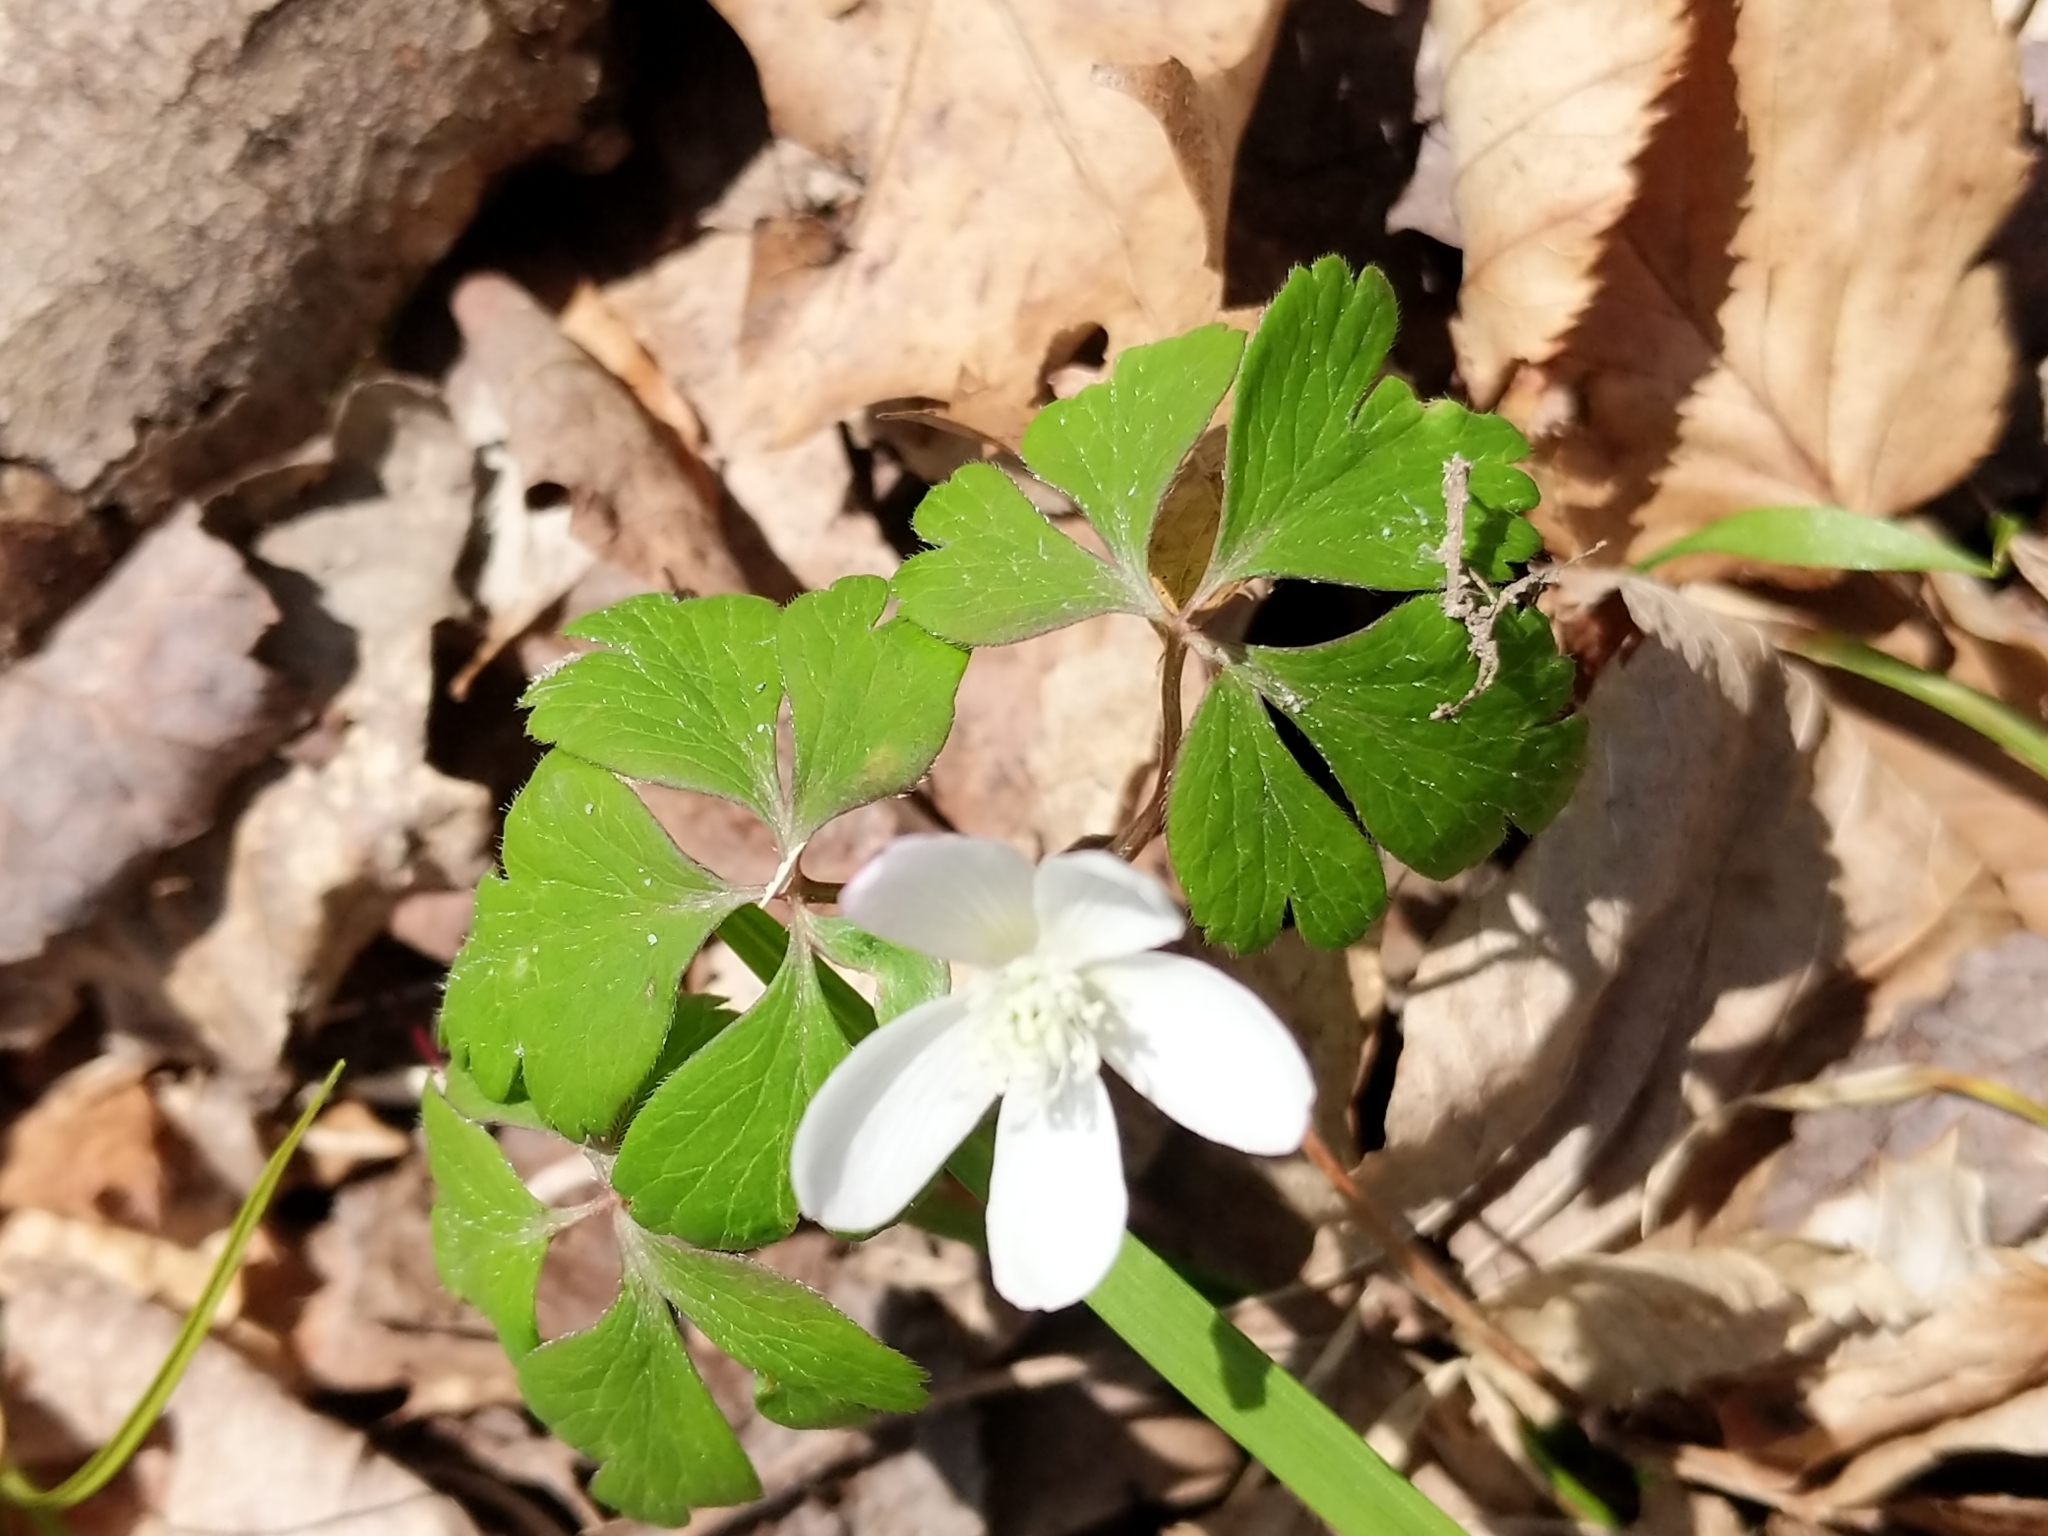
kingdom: Plantae
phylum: Tracheophyta
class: Magnoliopsida
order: Ranunculales
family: Ranunculaceae
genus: Anemone
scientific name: Anemone quinquefolia
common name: Wood anemone
